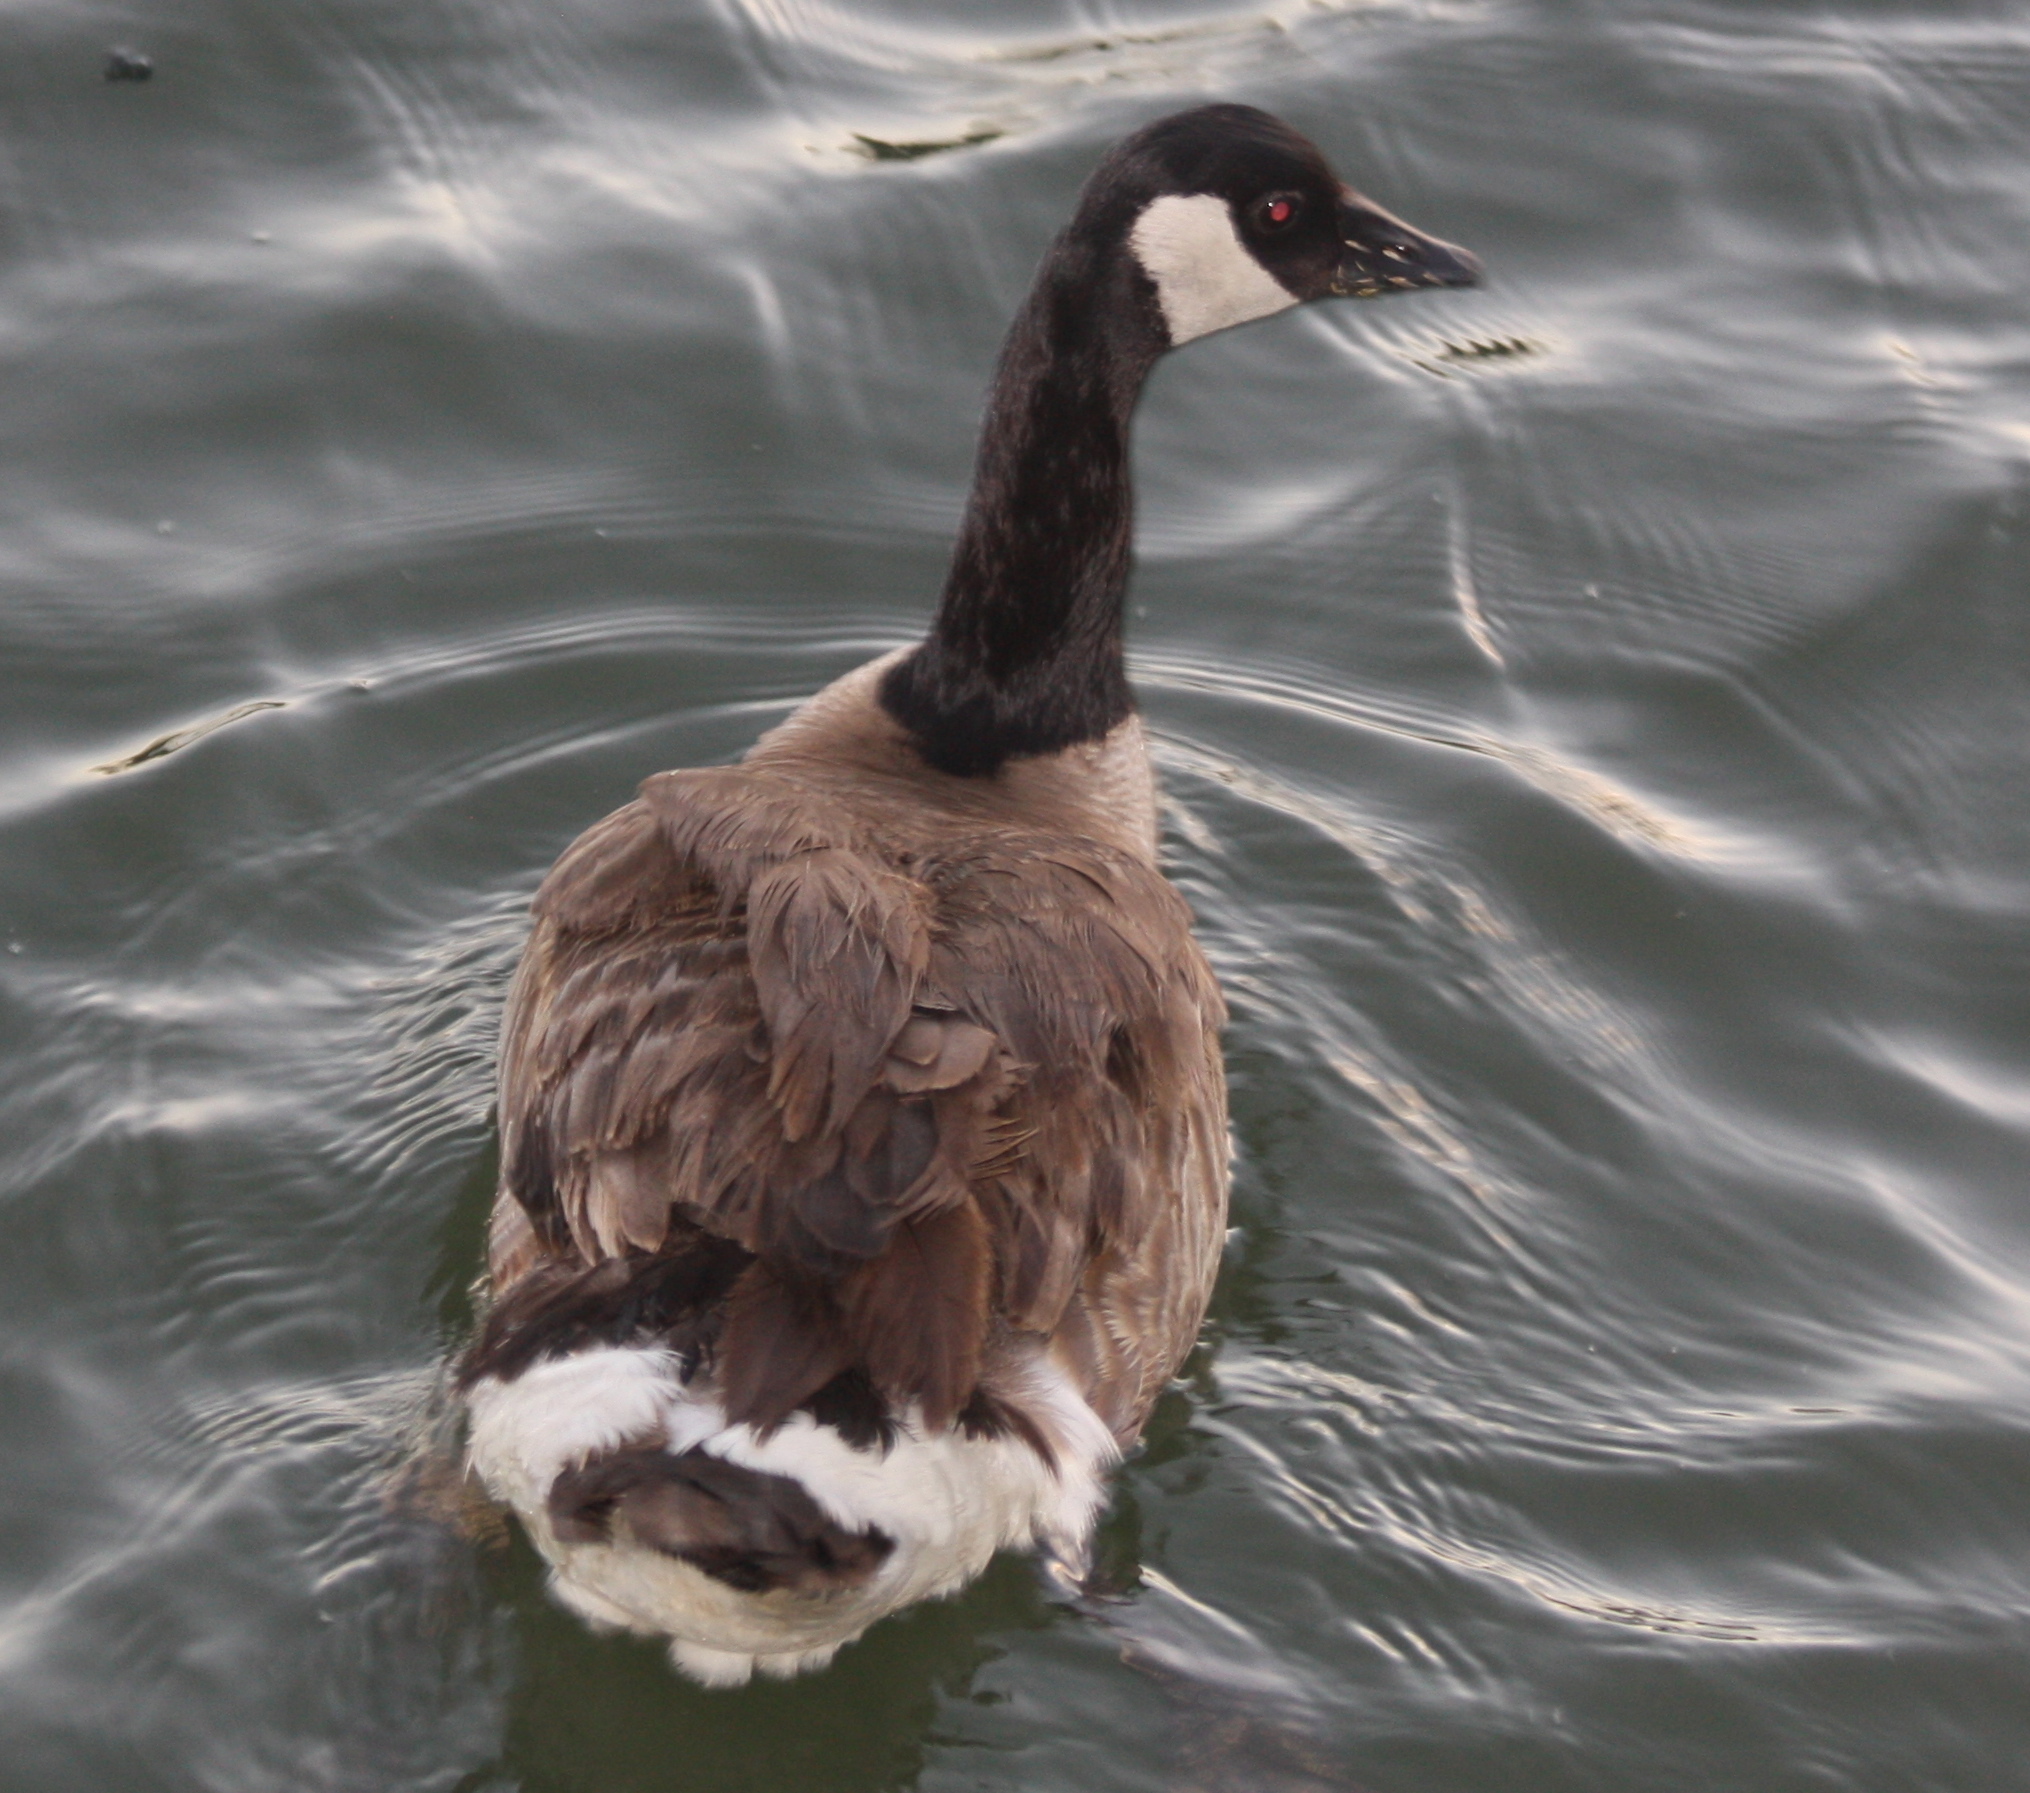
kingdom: Animalia
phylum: Chordata
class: Aves
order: Anseriformes
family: Anatidae
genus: Branta
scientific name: Branta canadensis
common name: Canada goose
